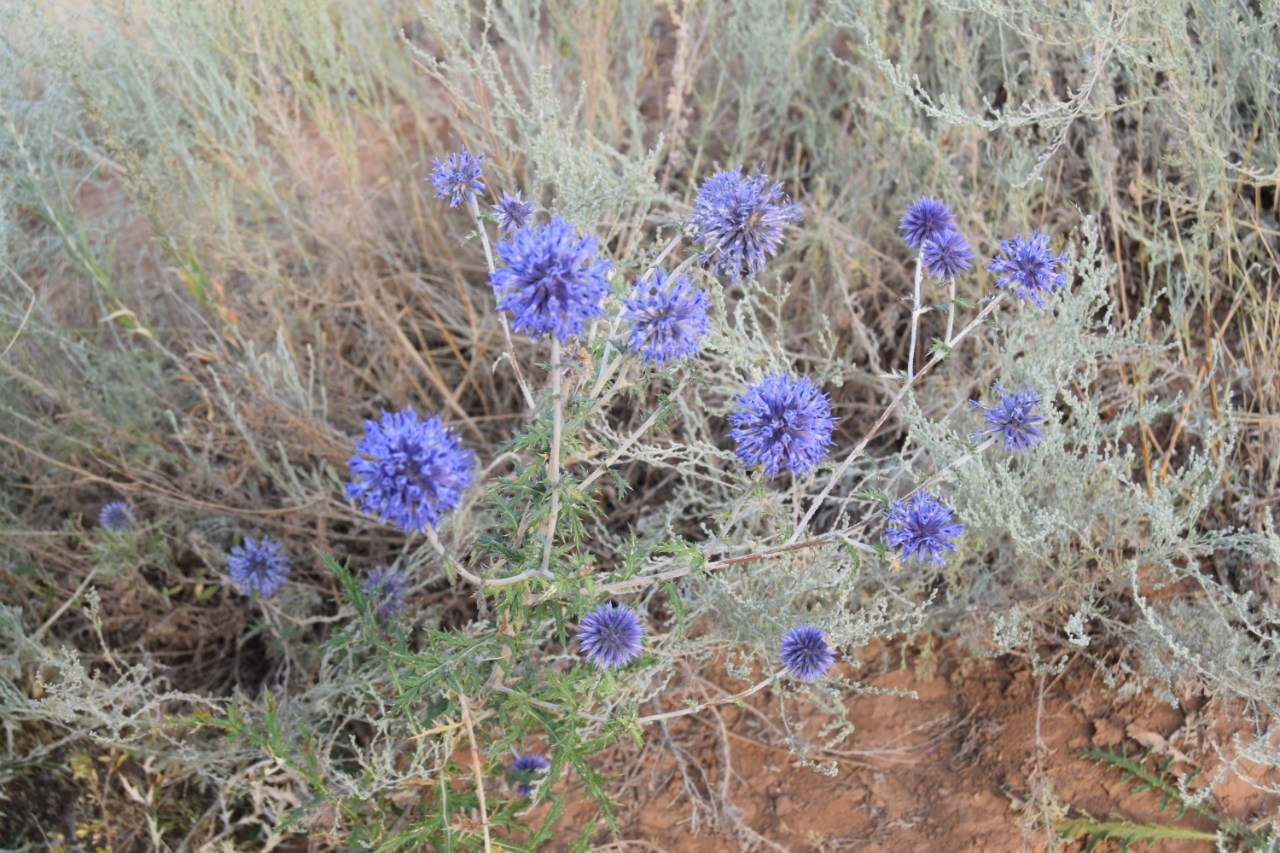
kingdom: Plantae
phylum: Tracheophyta
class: Magnoliopsida
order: Asterales
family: Asteraceae
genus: Echinops
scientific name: Echinops ritro
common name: Globe thistle
